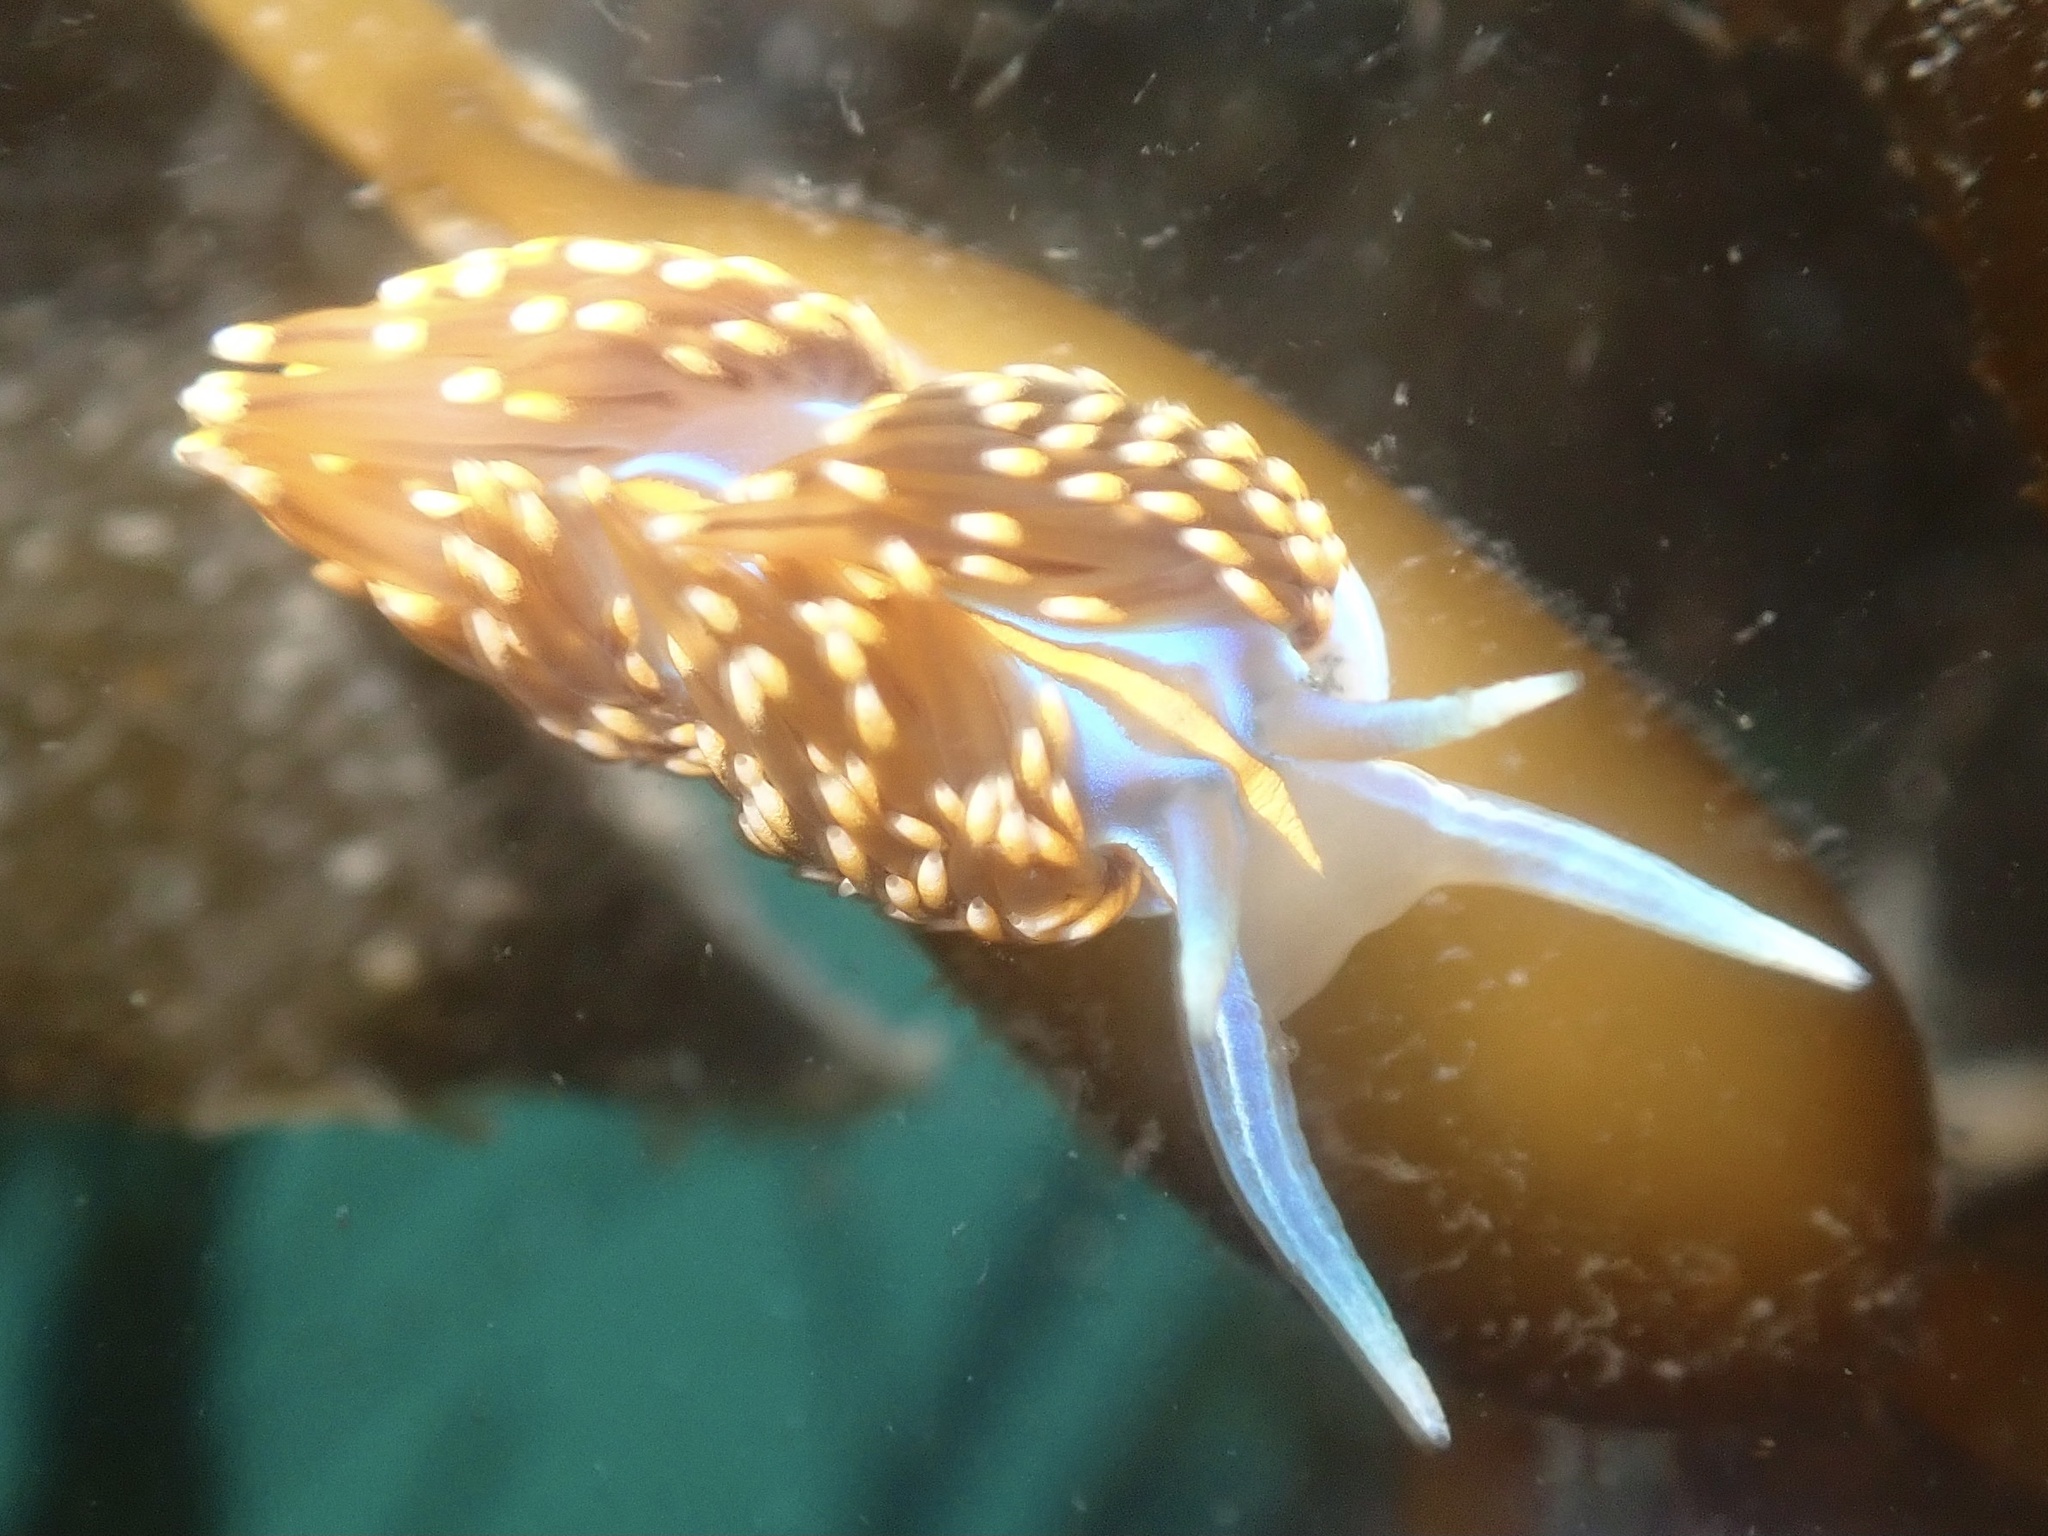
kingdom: Animalia
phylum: Mollusca
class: Gastropoda
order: Nudibranchia
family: Myrrhinidae
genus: Hermissenda
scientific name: Hermissenda opalescens
